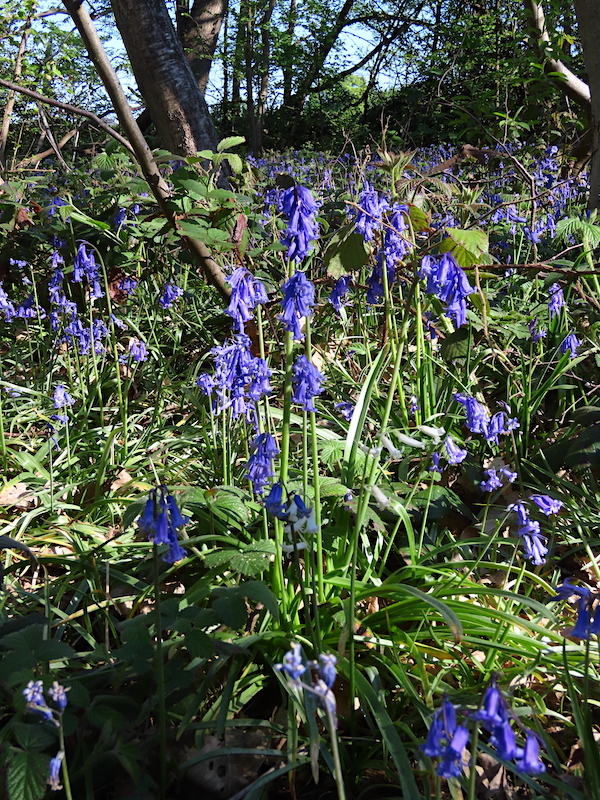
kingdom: Plantae
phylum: Tracheophyta
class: Liliopsida
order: Asparagales
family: Asparagaceae
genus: Hyacinthoides
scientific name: Hyacinthoides non-scripta
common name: Bluebell
